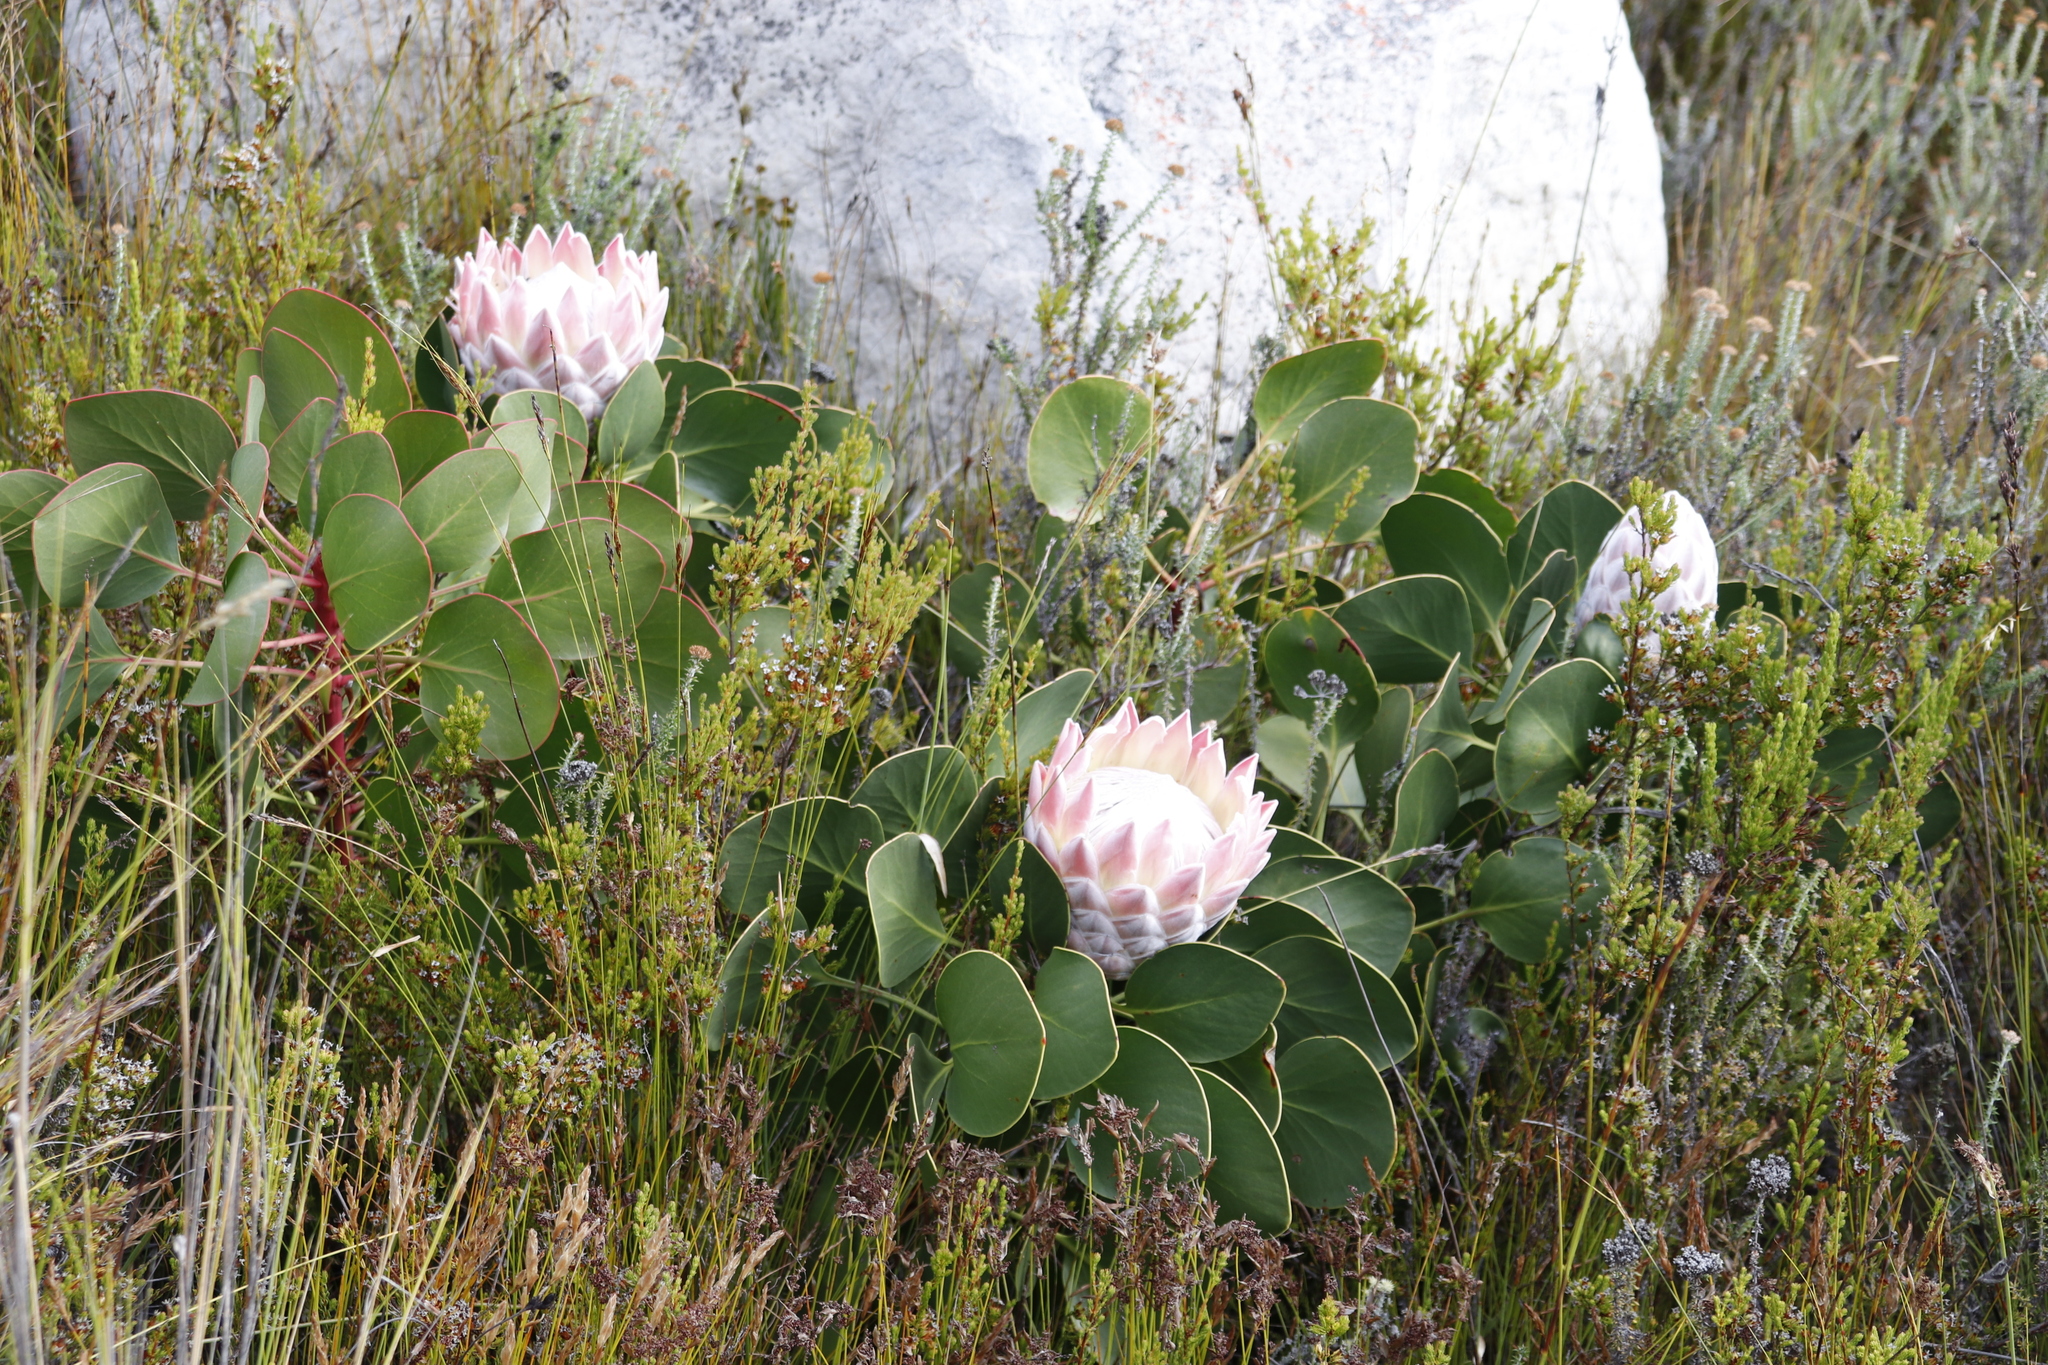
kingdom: Plantae
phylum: Tracheophyta
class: Magnoliopsida
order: Proteales
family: Proteaceae
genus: Protea
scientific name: Protea cynaroides
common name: King protea
